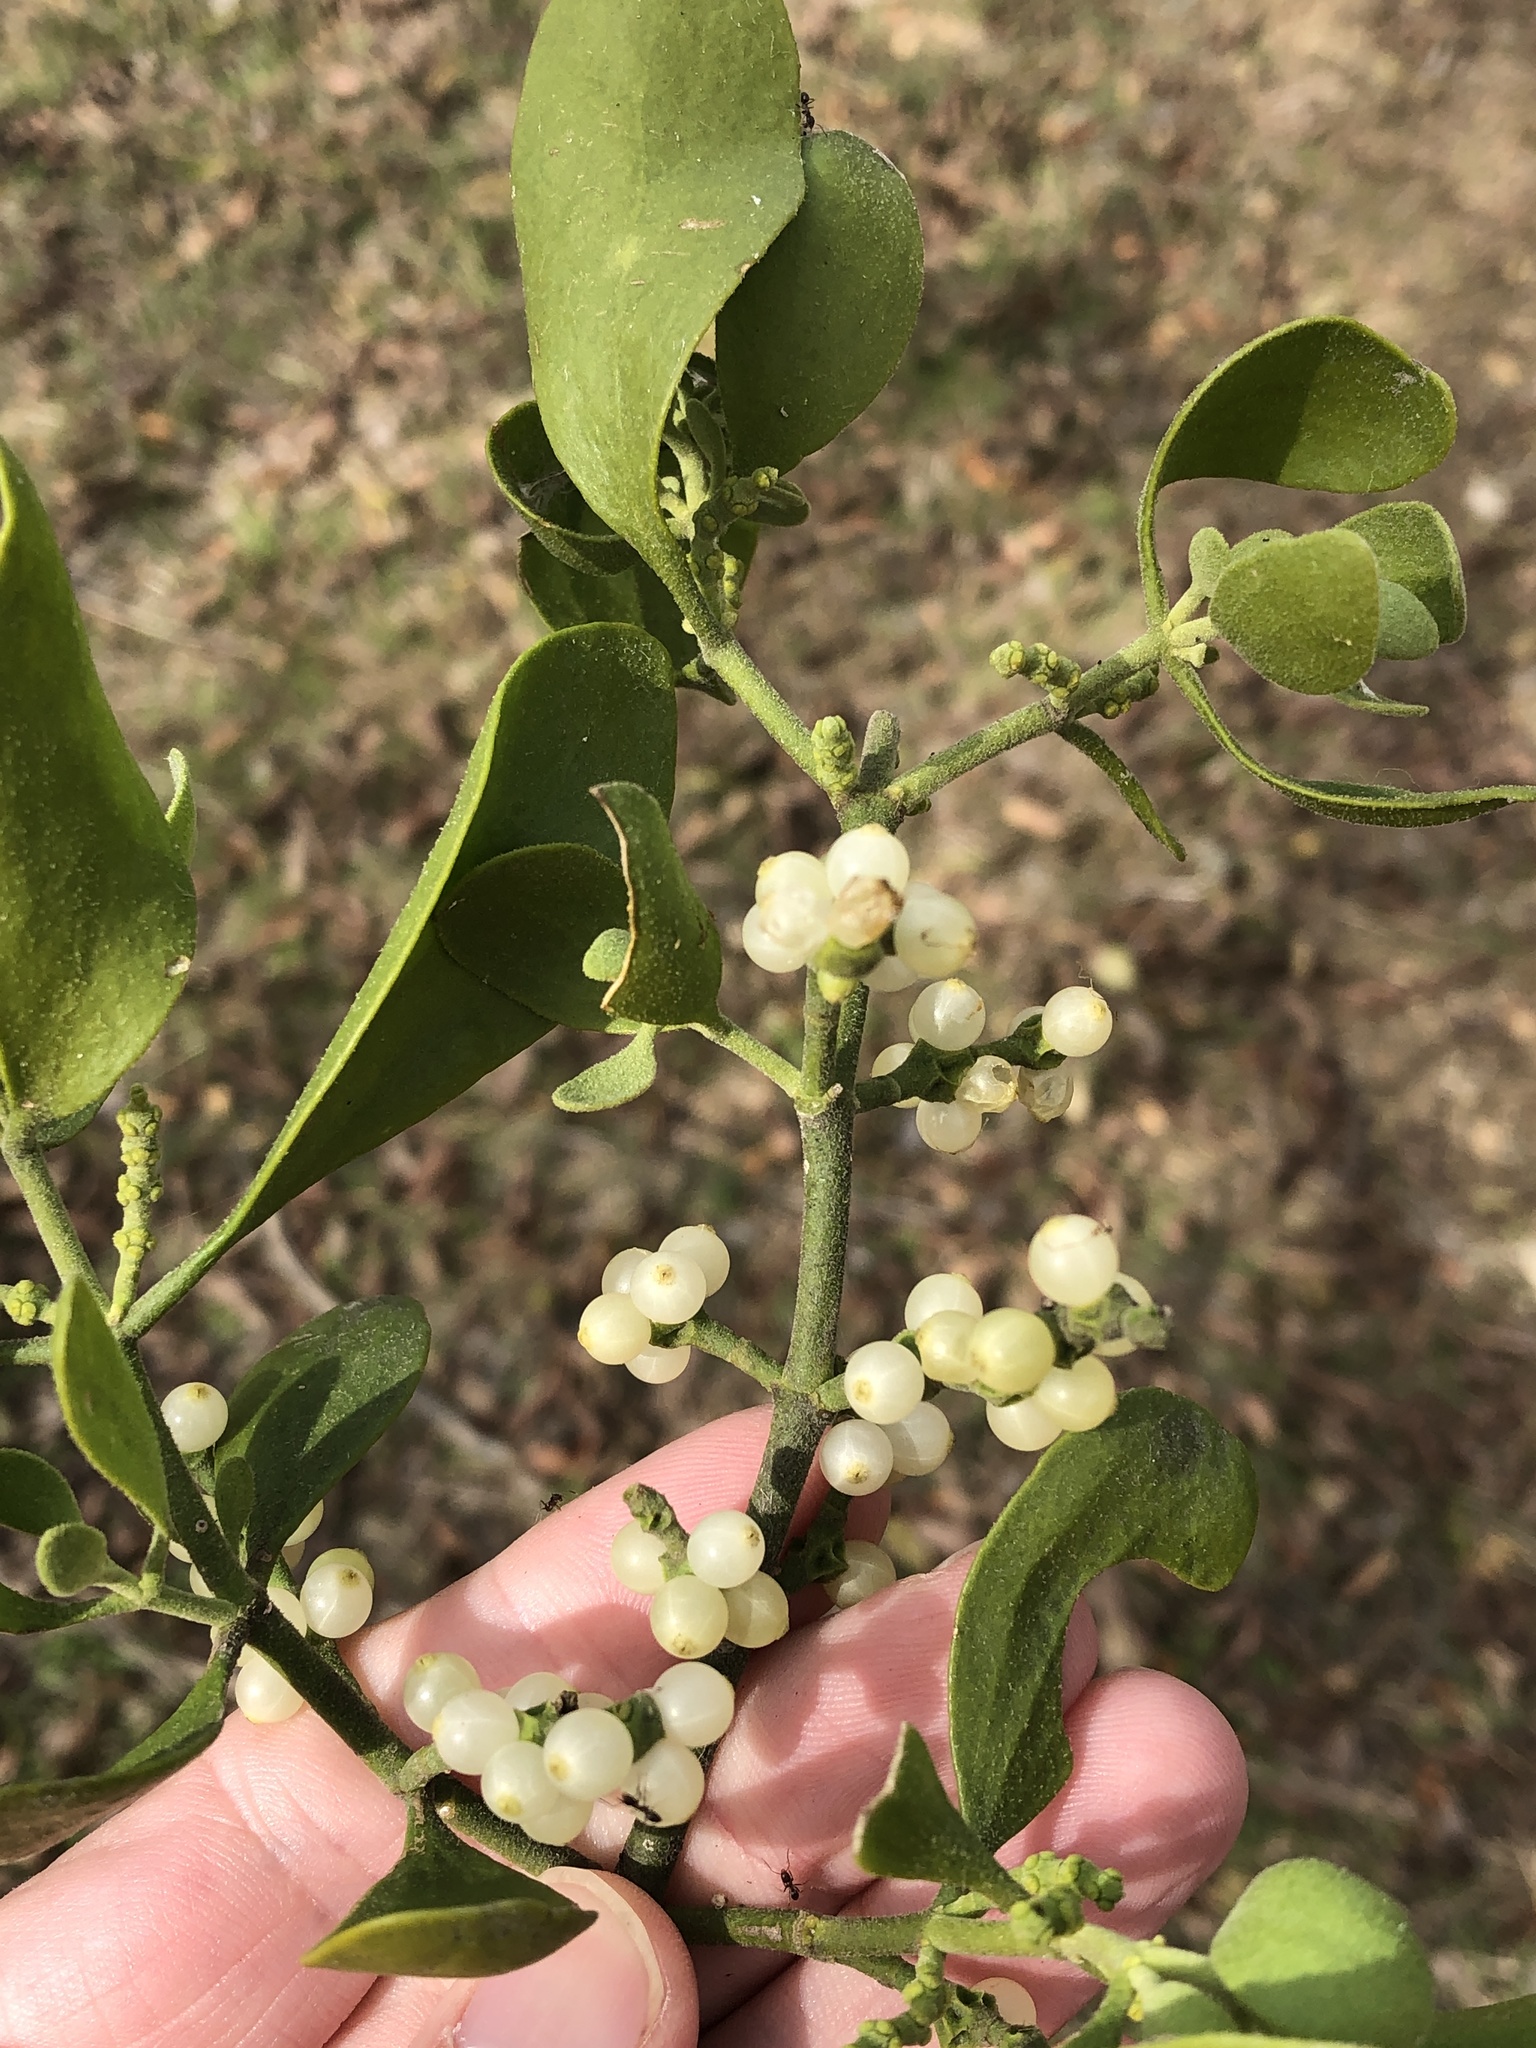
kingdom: Plantae
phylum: Tracheophyta
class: Magnoliopsida
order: Santalales
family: Viscaceae
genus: Phoradendron
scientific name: Phoradendron leucarpum
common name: Pacific mistletoe
